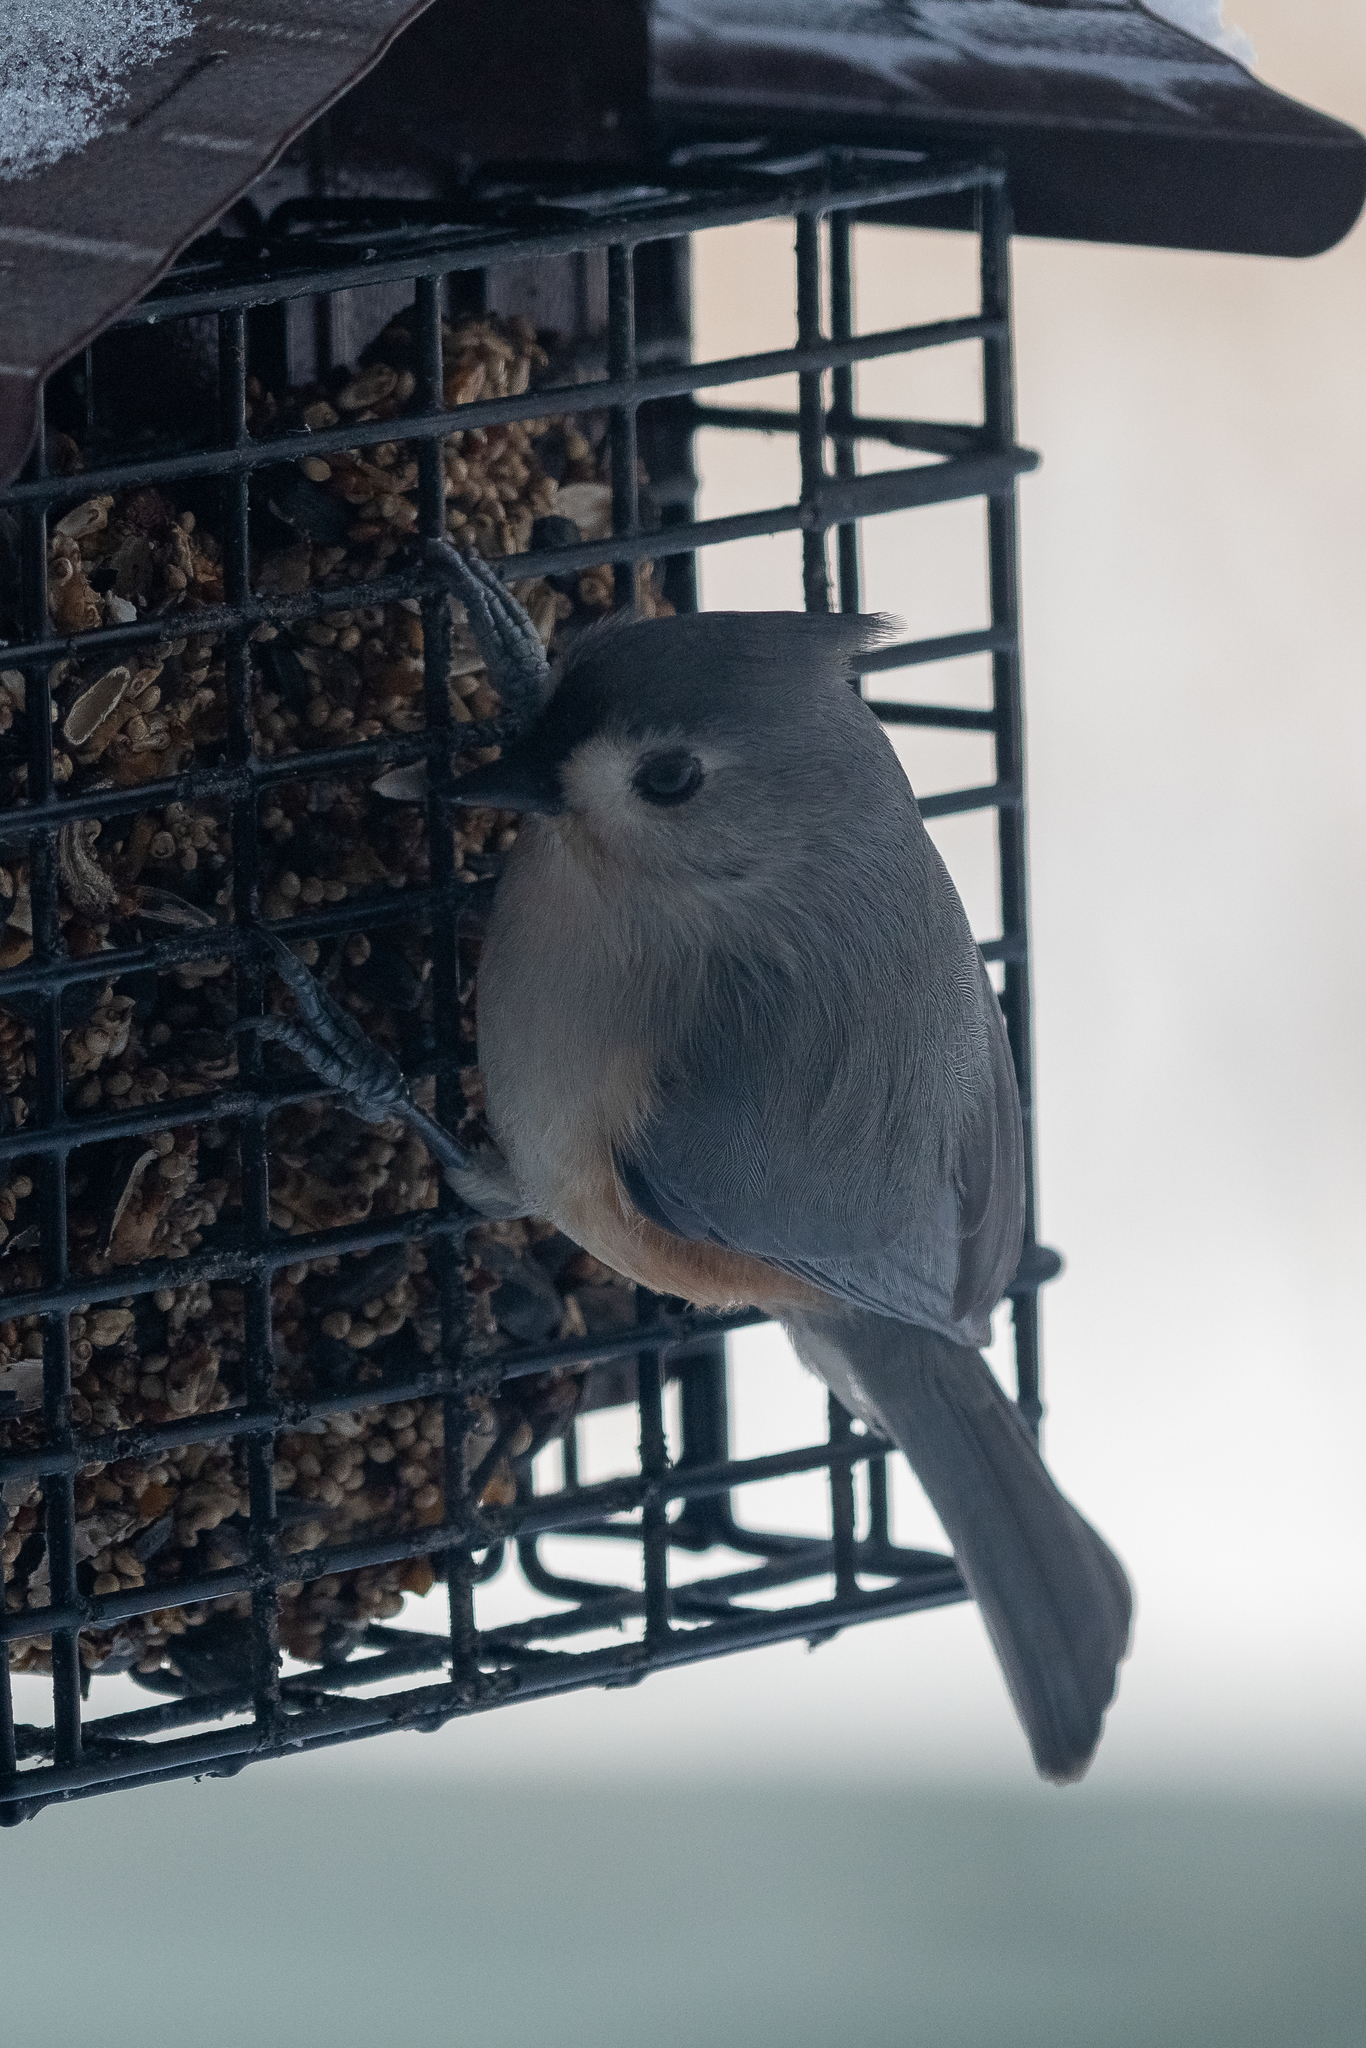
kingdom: Animalia
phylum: Chordata
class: Aves
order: Passeriformes
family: Paridae
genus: Baeolophus
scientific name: Baeolophus bicolor
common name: Tufted titmouse
